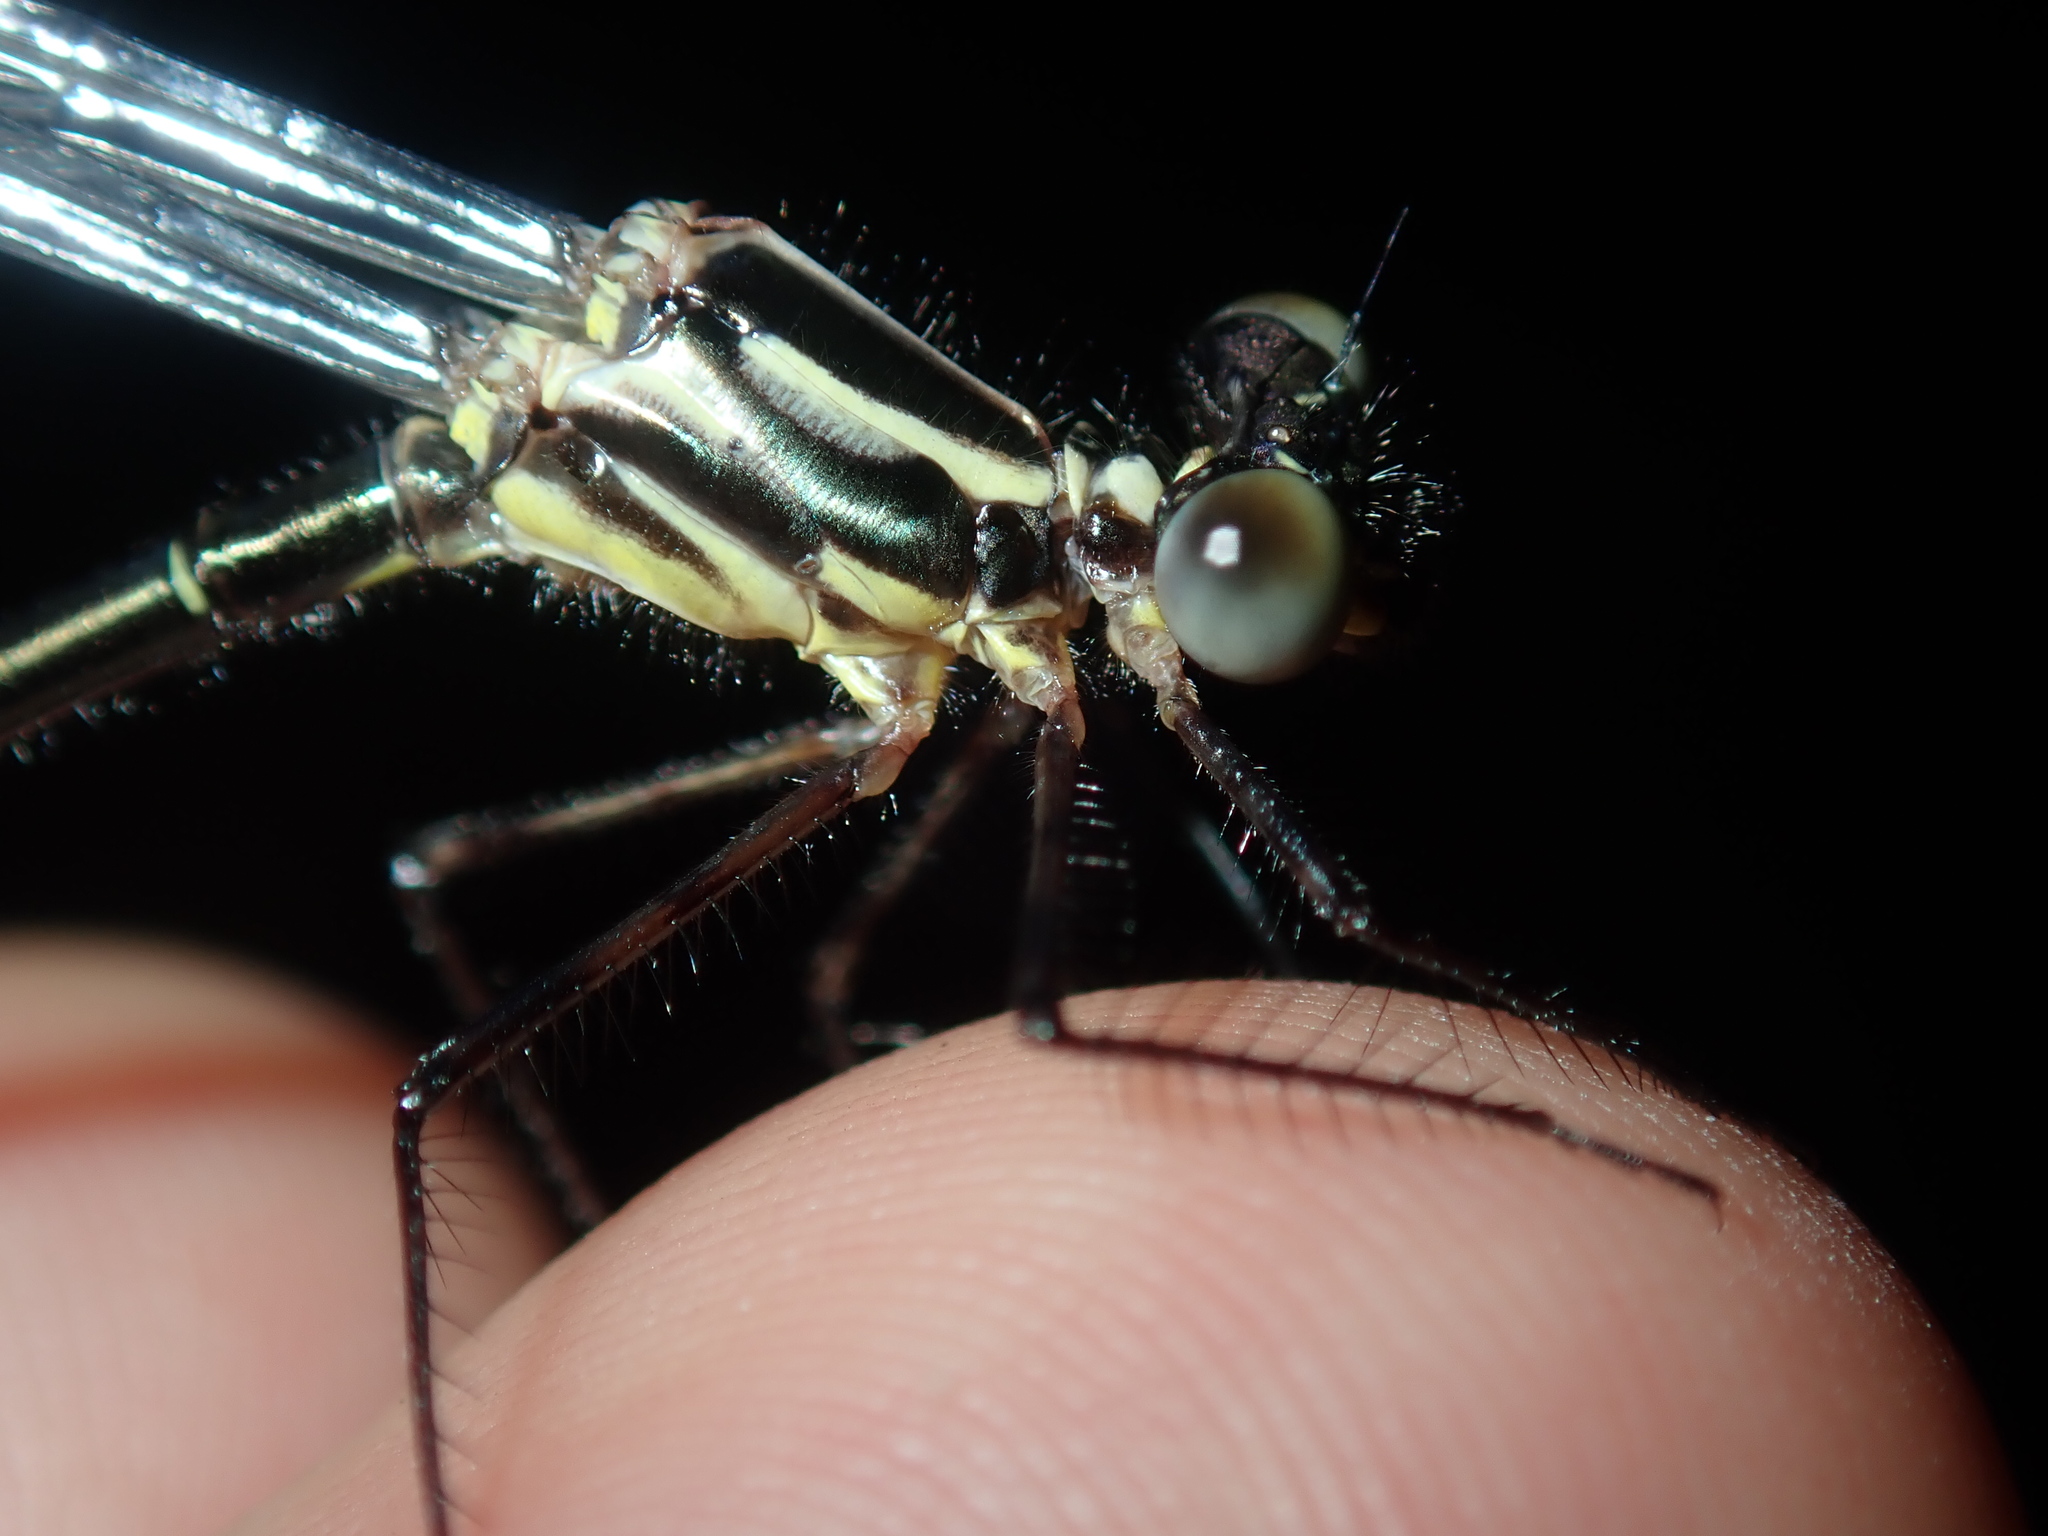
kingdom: Animalia
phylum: Arthropoda
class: Insecta
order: Odonata
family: Argiolestidae
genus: Austroargiolestes
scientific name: Austroargiolestes icteromelas
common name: Common flatwing
